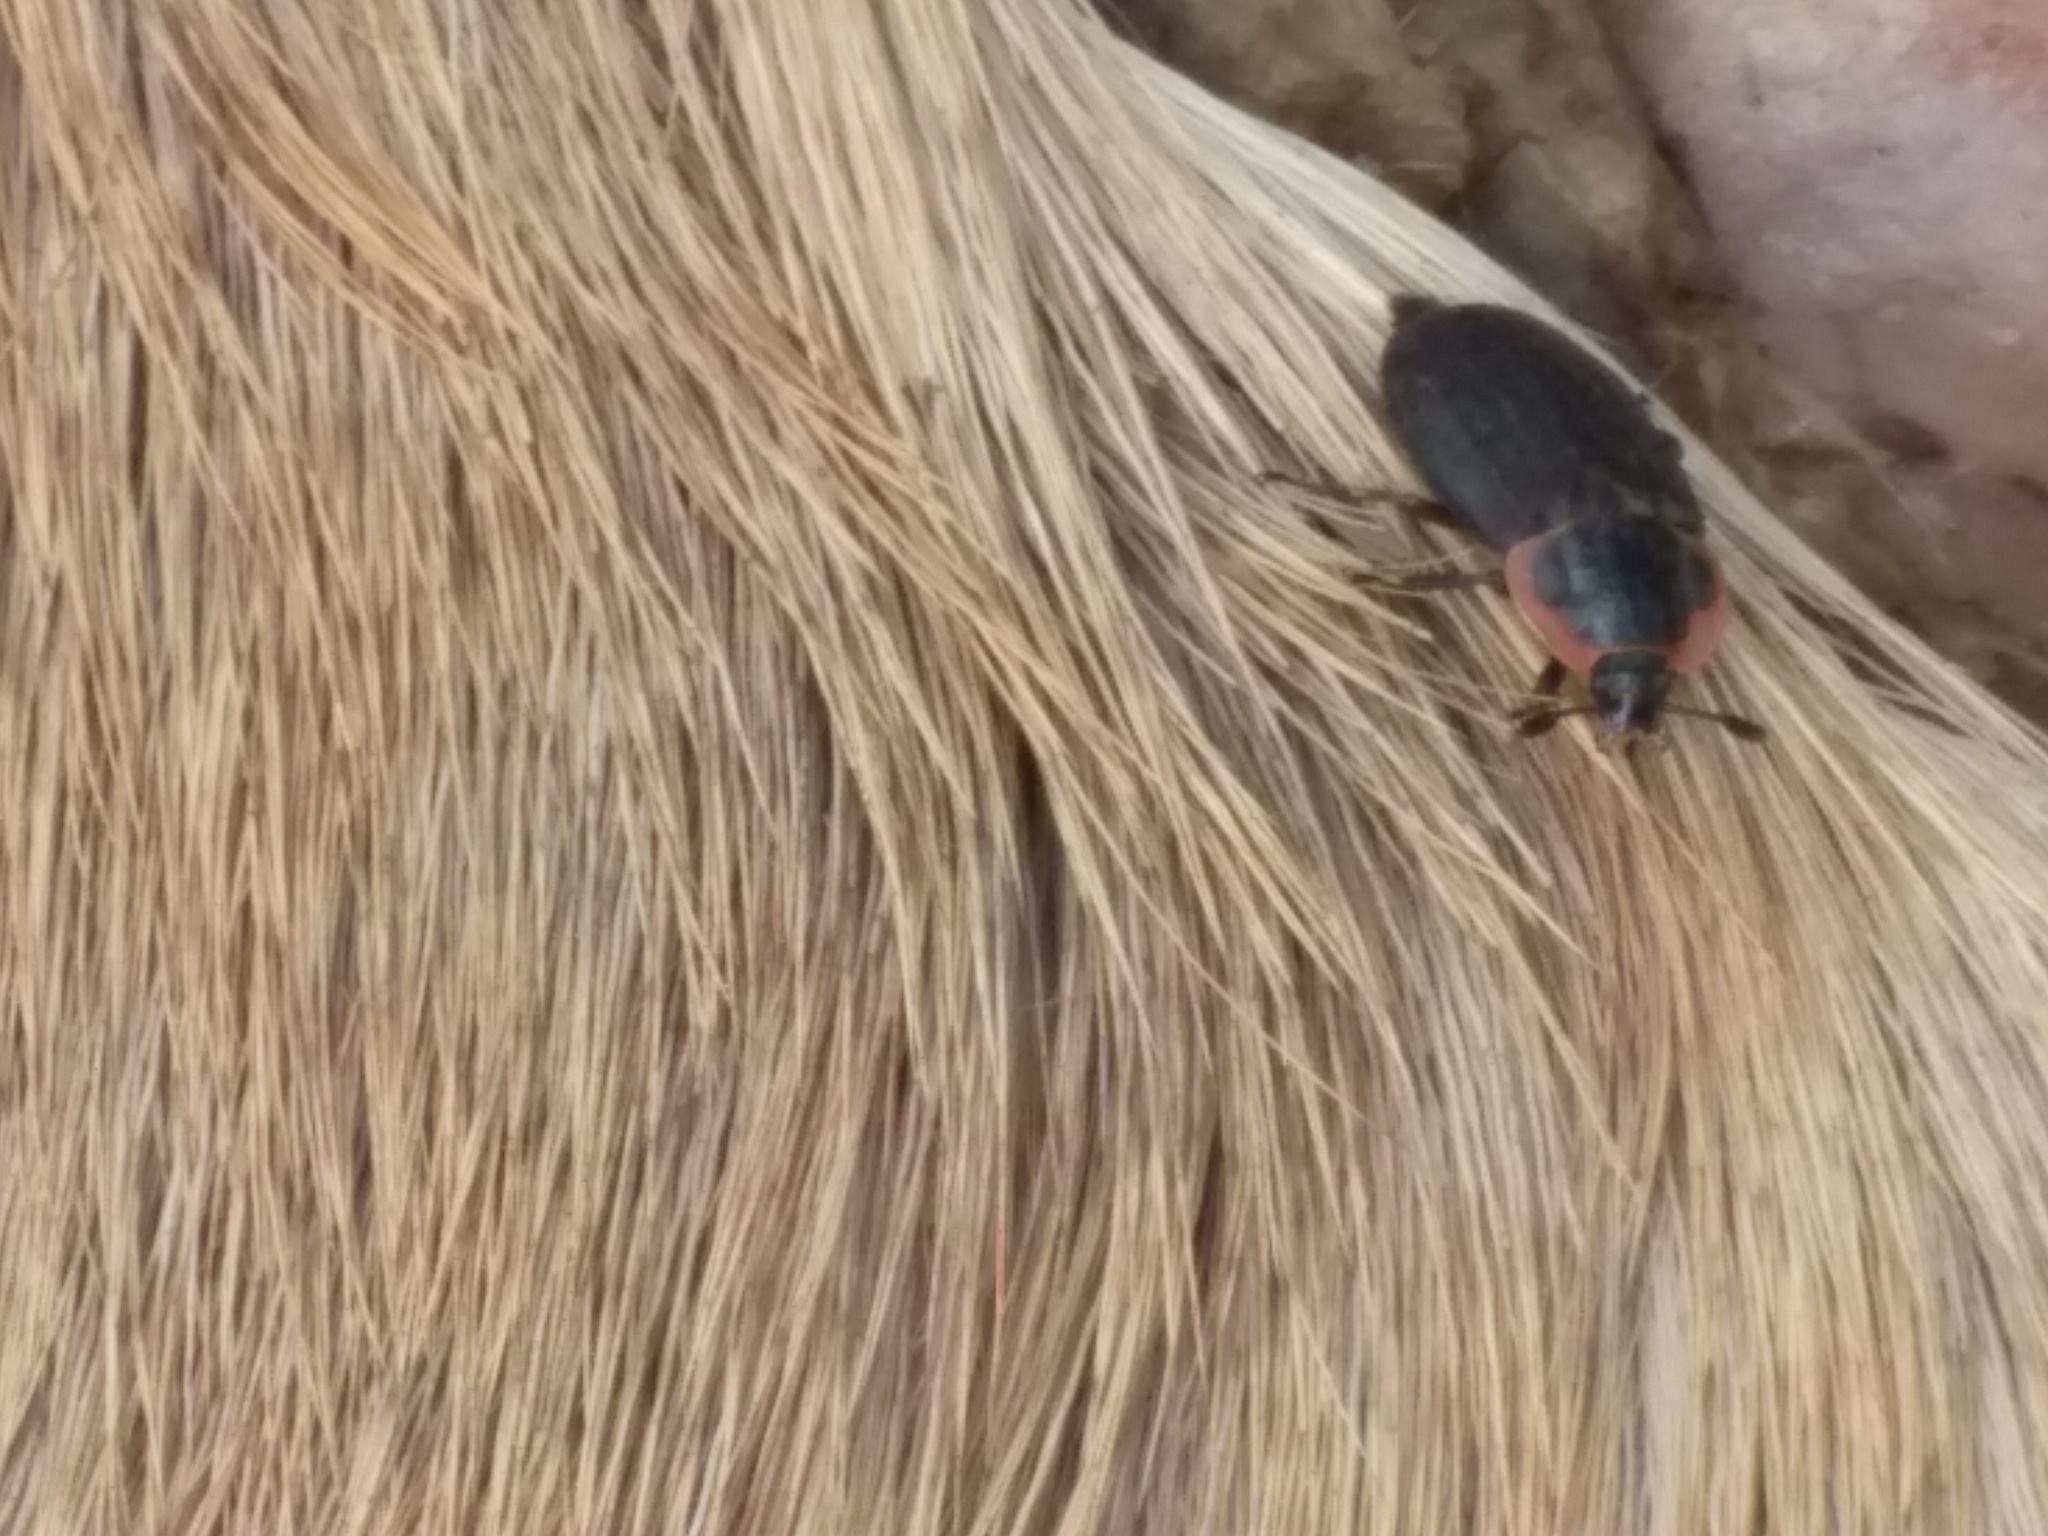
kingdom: Animalia
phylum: Arthropoda
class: Insecta
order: Coleoptera
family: Staphylinidae
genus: Oiceoptoma
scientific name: Oiceoptoma noveboracense
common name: Margined carrion beetle
